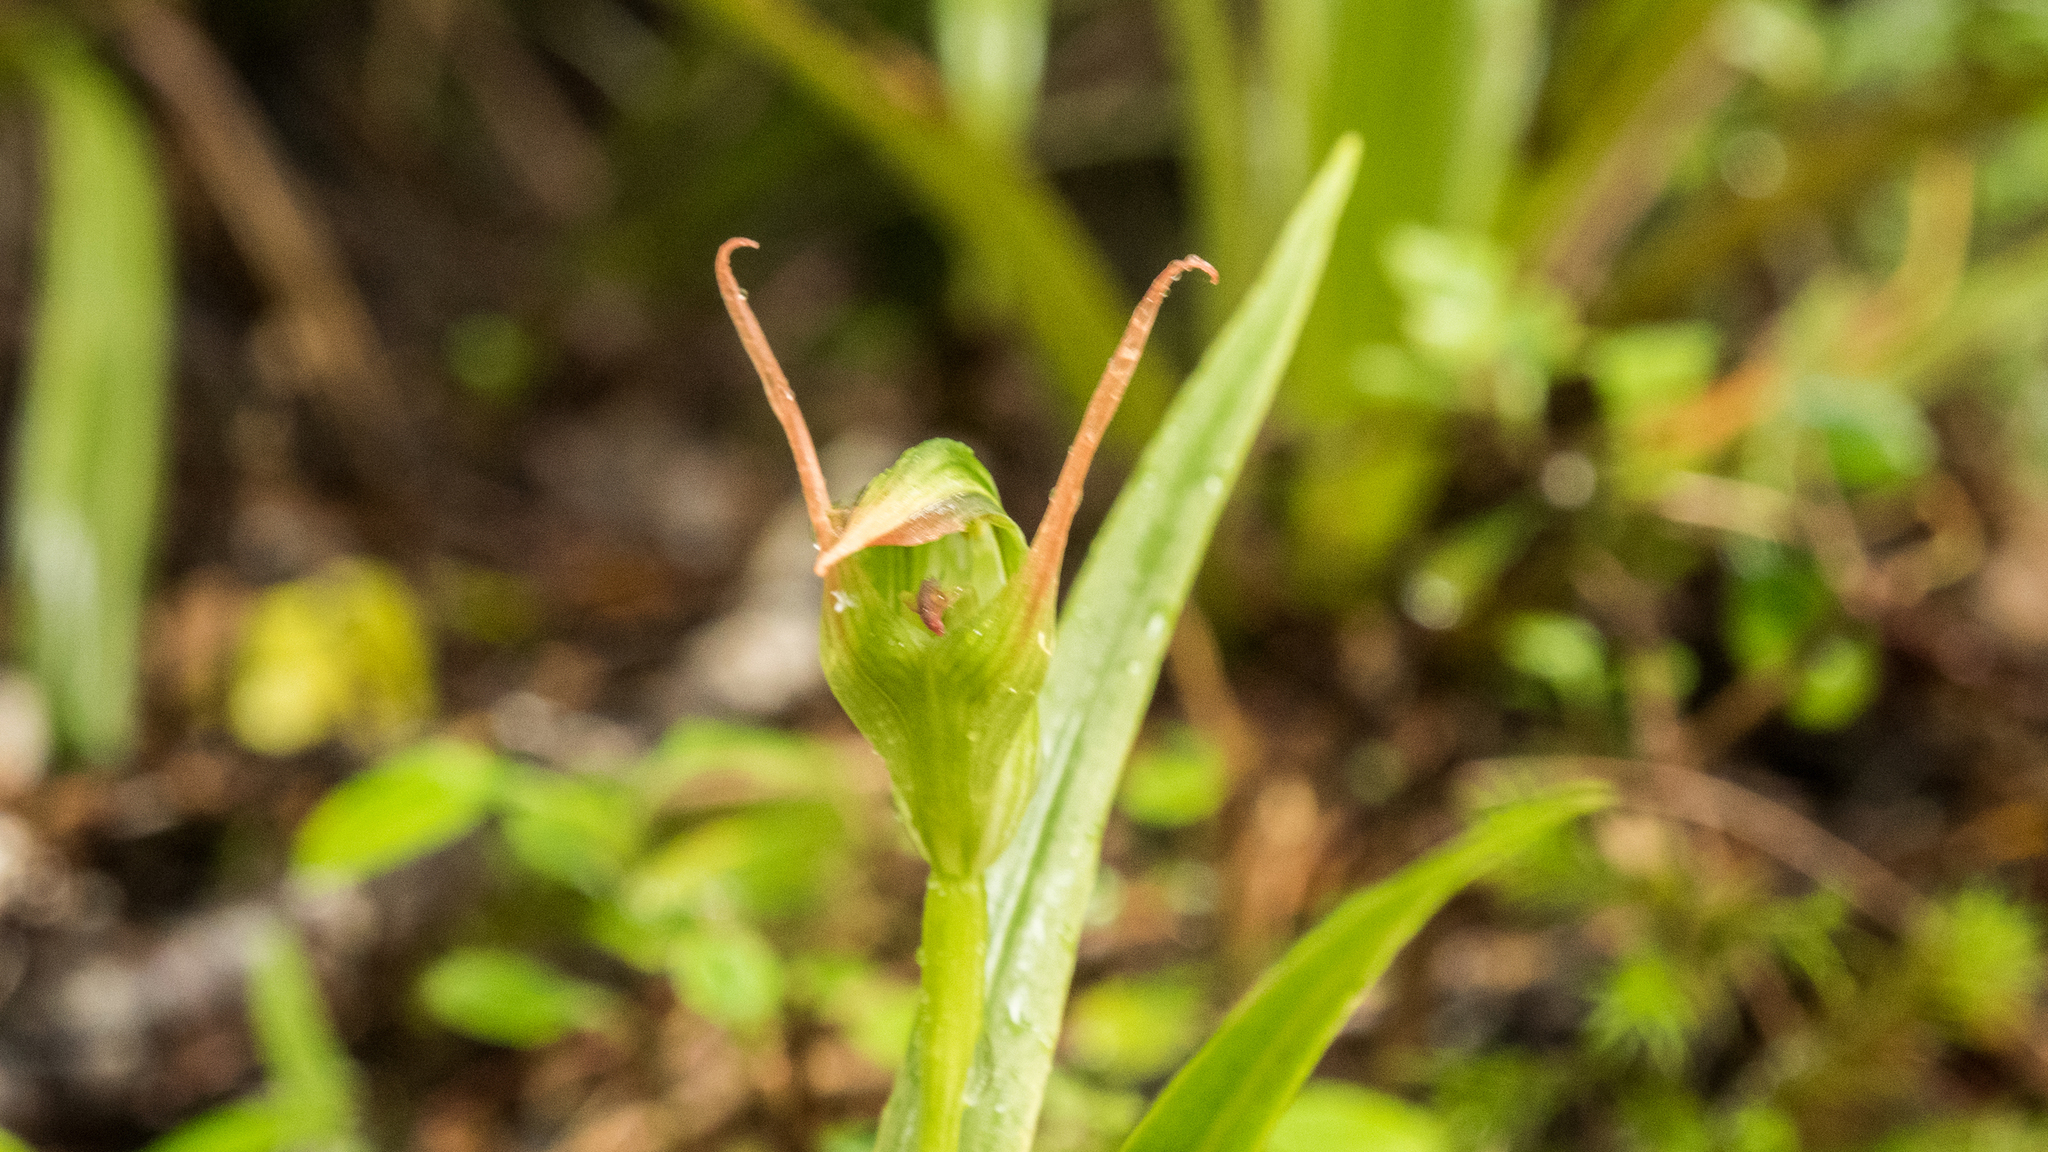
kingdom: Plantae
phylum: Tracheophyta
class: Liliopsida
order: Asparagales
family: Orchidaceae
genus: Pterostylis
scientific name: Pterostylis montana
